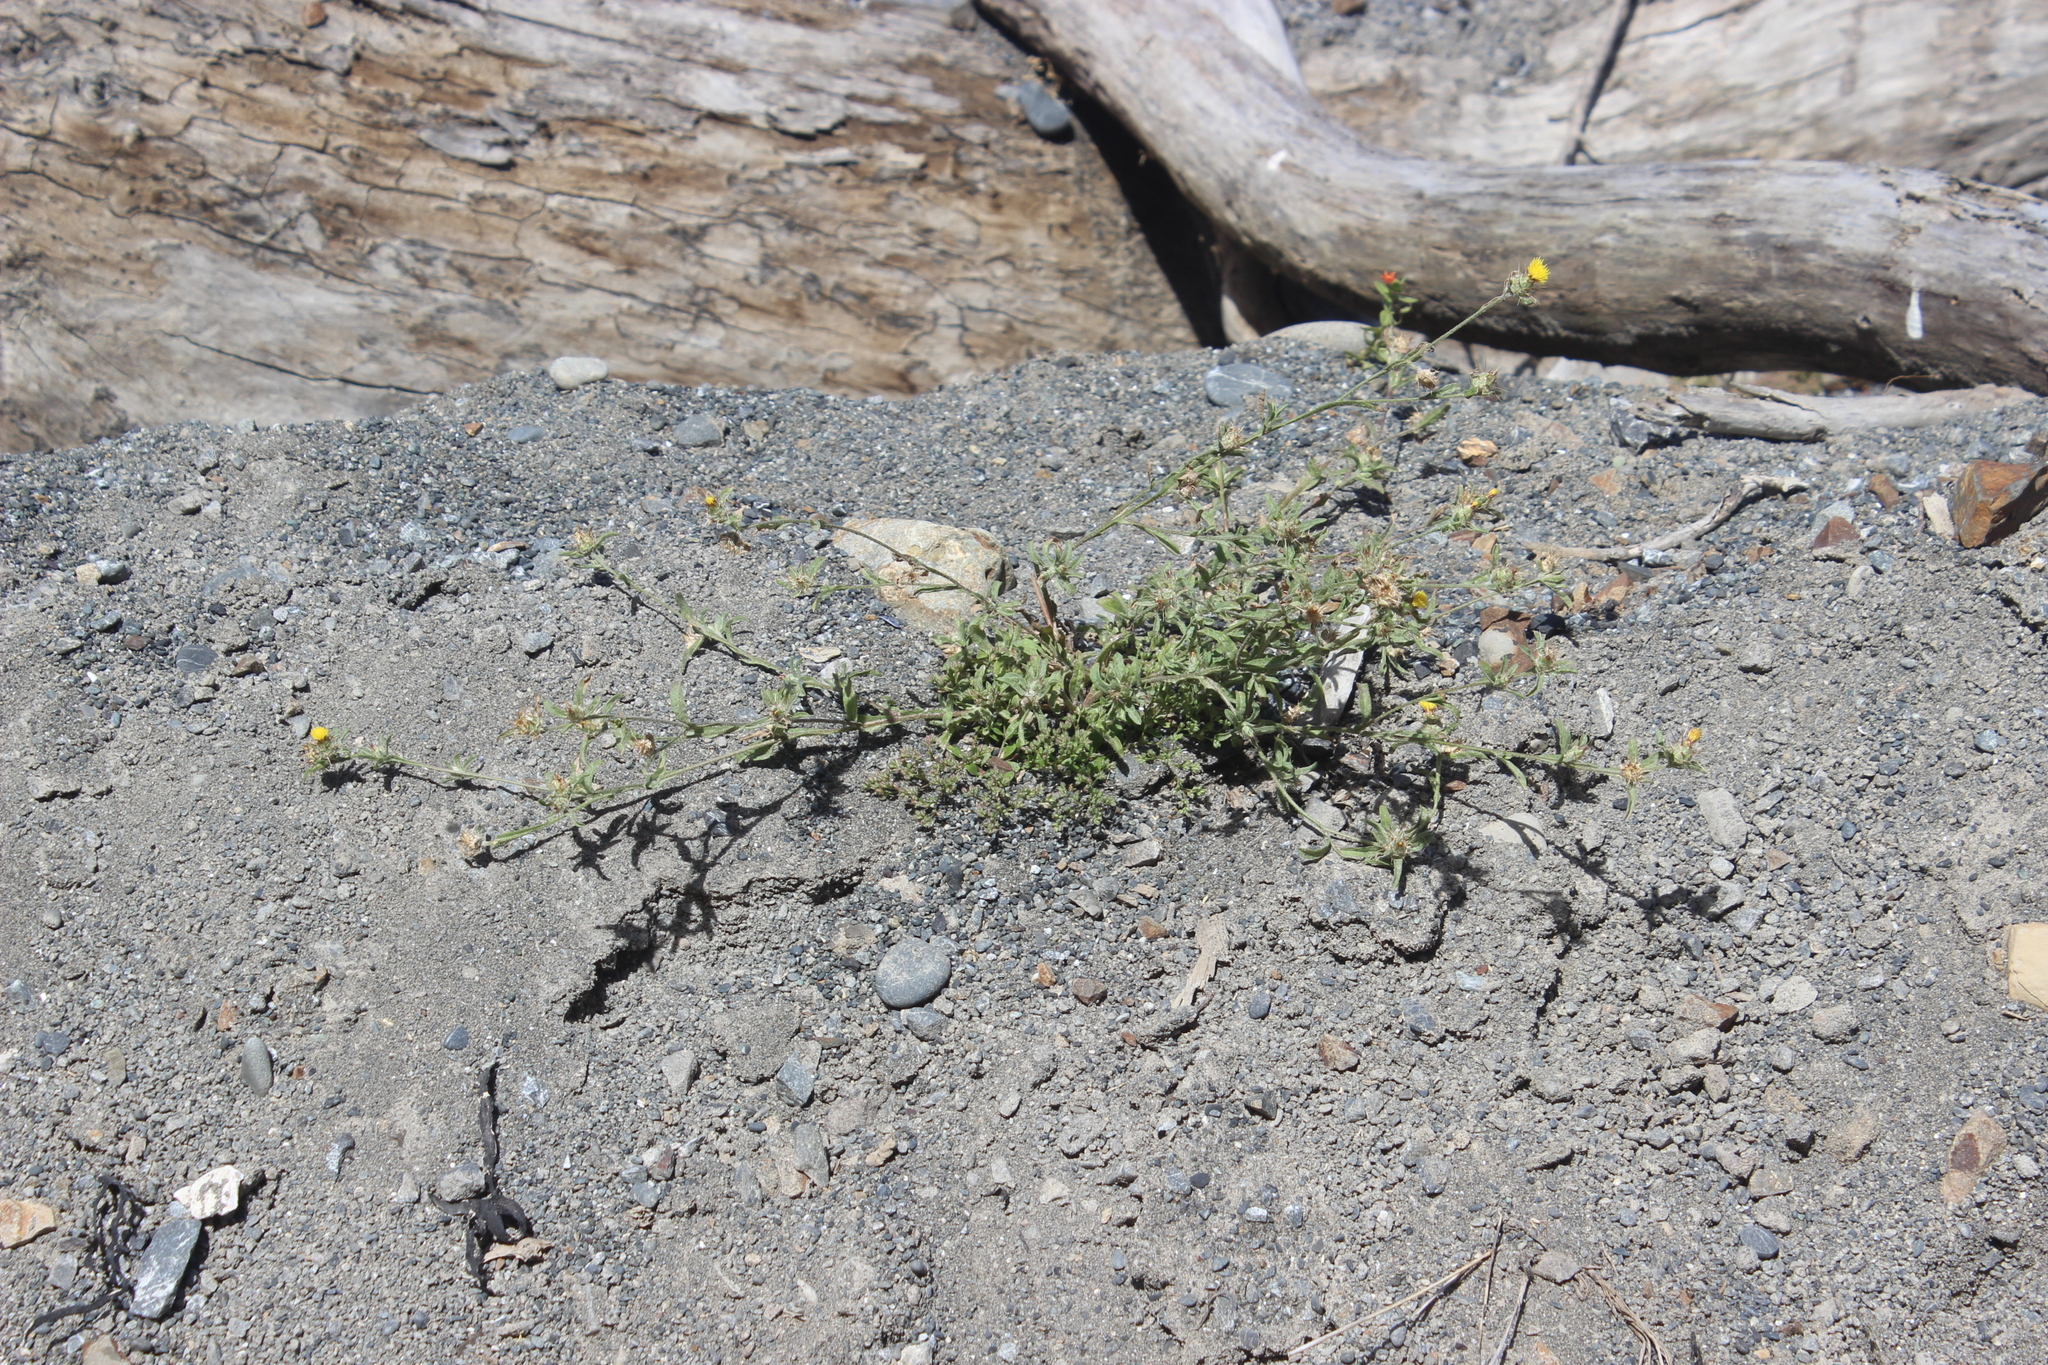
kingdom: Plantae
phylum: Tracheophyta
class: Magnoliopsida
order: Asterales
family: Asteraceae
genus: Centaurea
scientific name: Centaurea melitensis
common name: Maltese star-thistle
